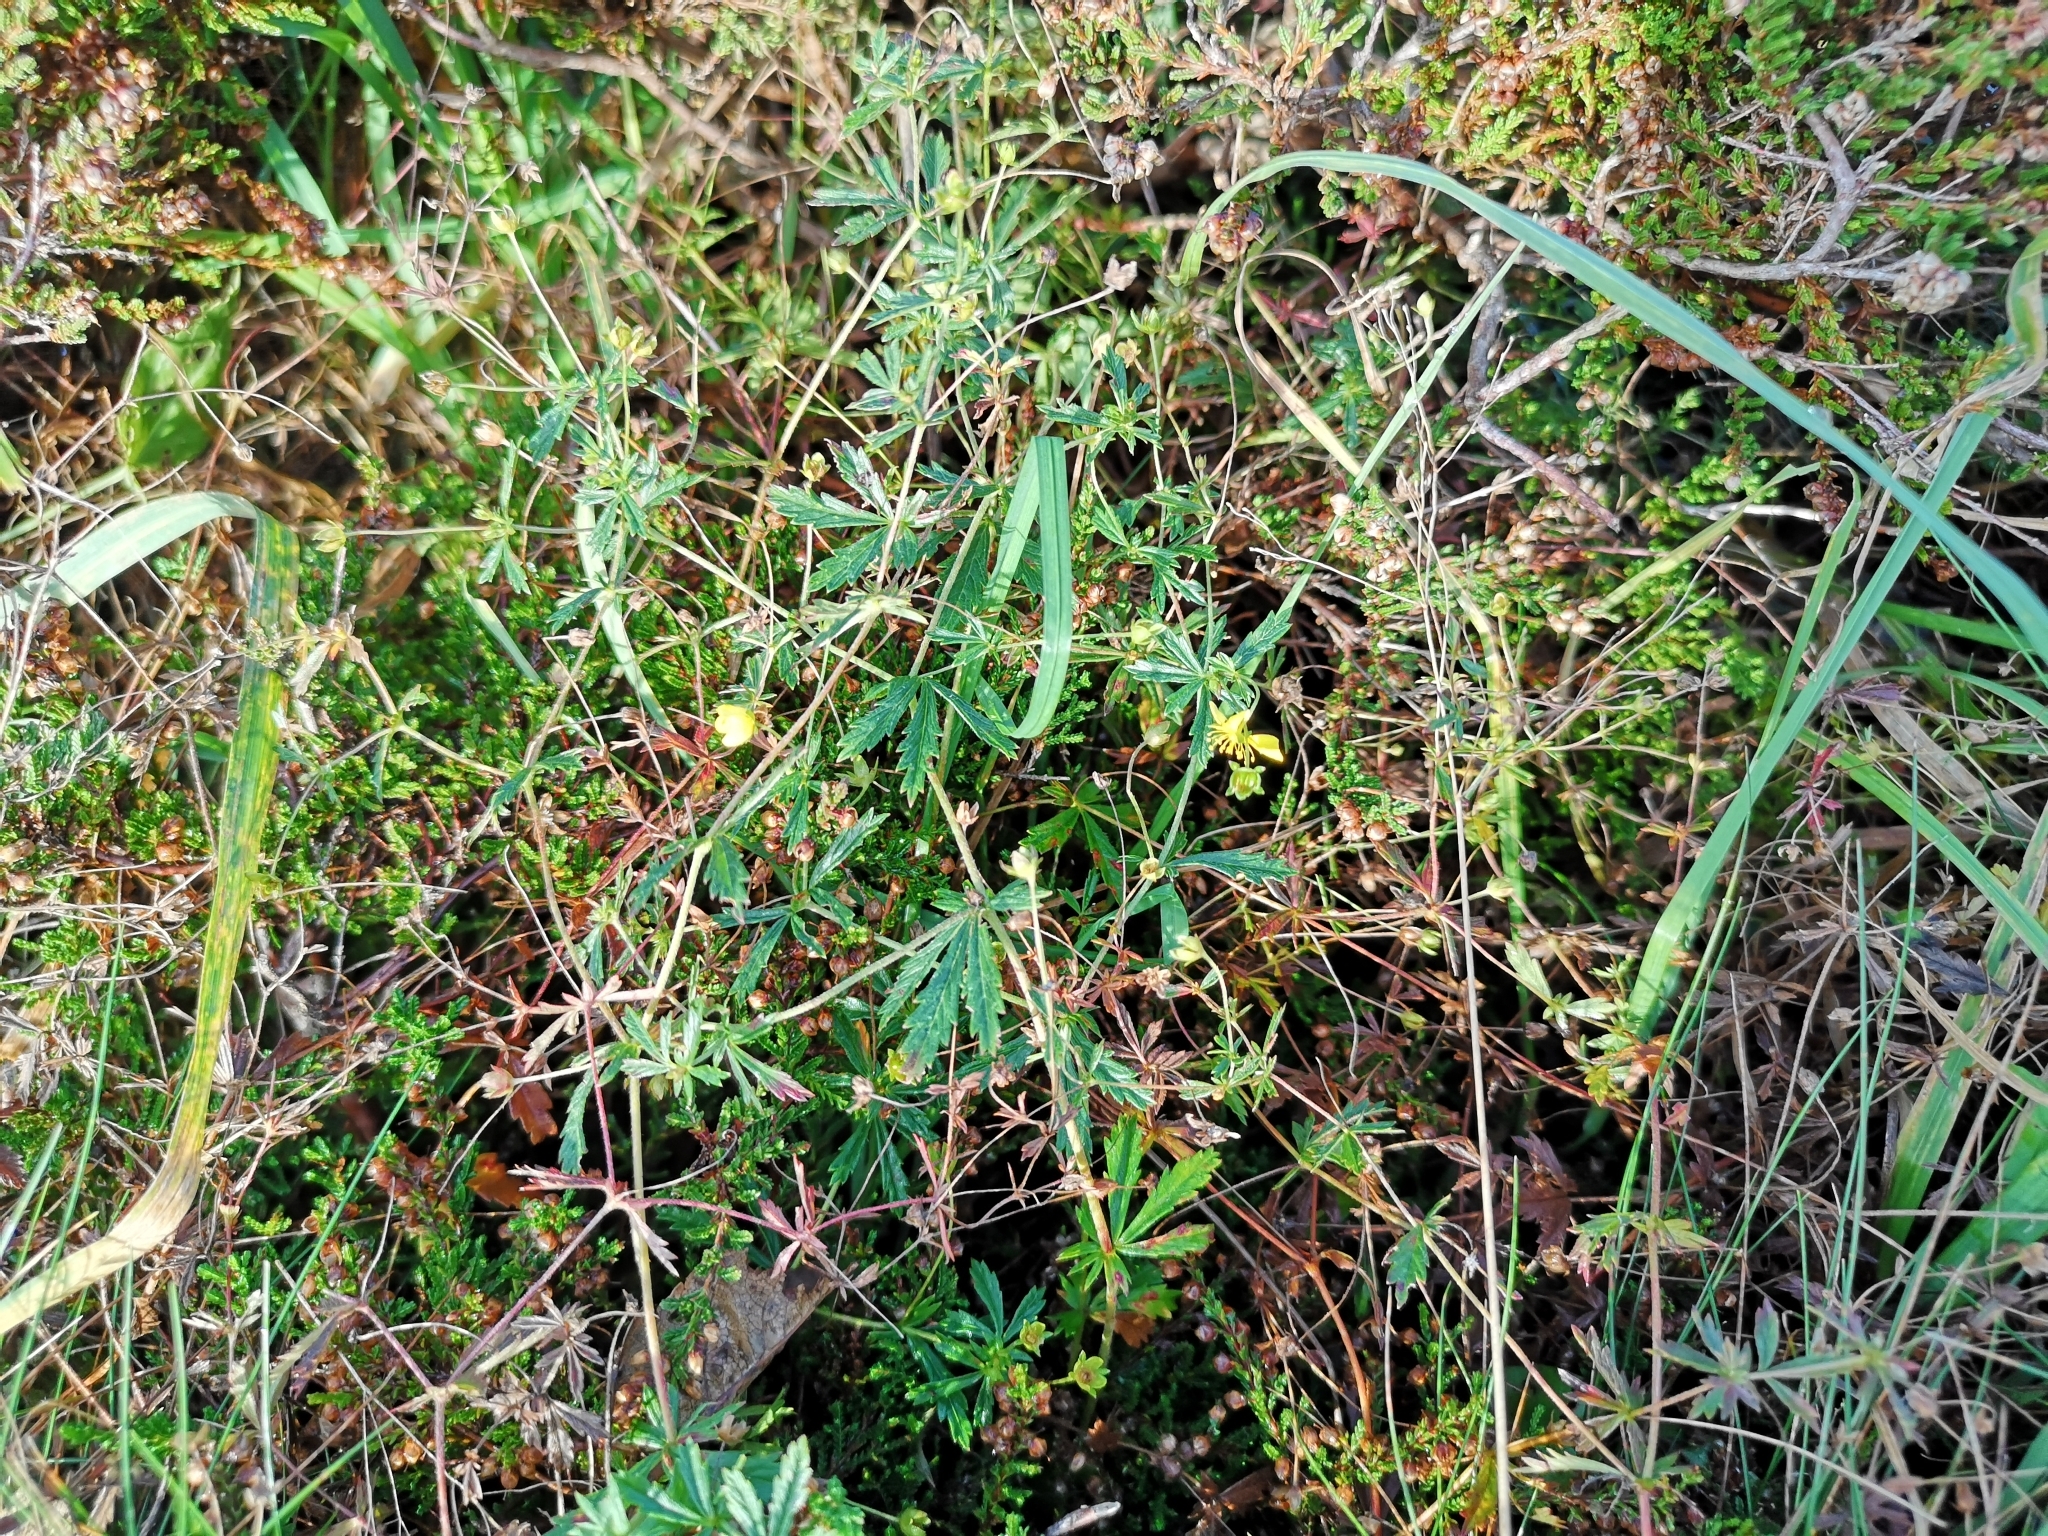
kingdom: Plantae
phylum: Tracheophyta
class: Magnoliopsida
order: Rosales
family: Rosaceae
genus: Potentilla
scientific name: Potentilla erecta
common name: Tormentil
